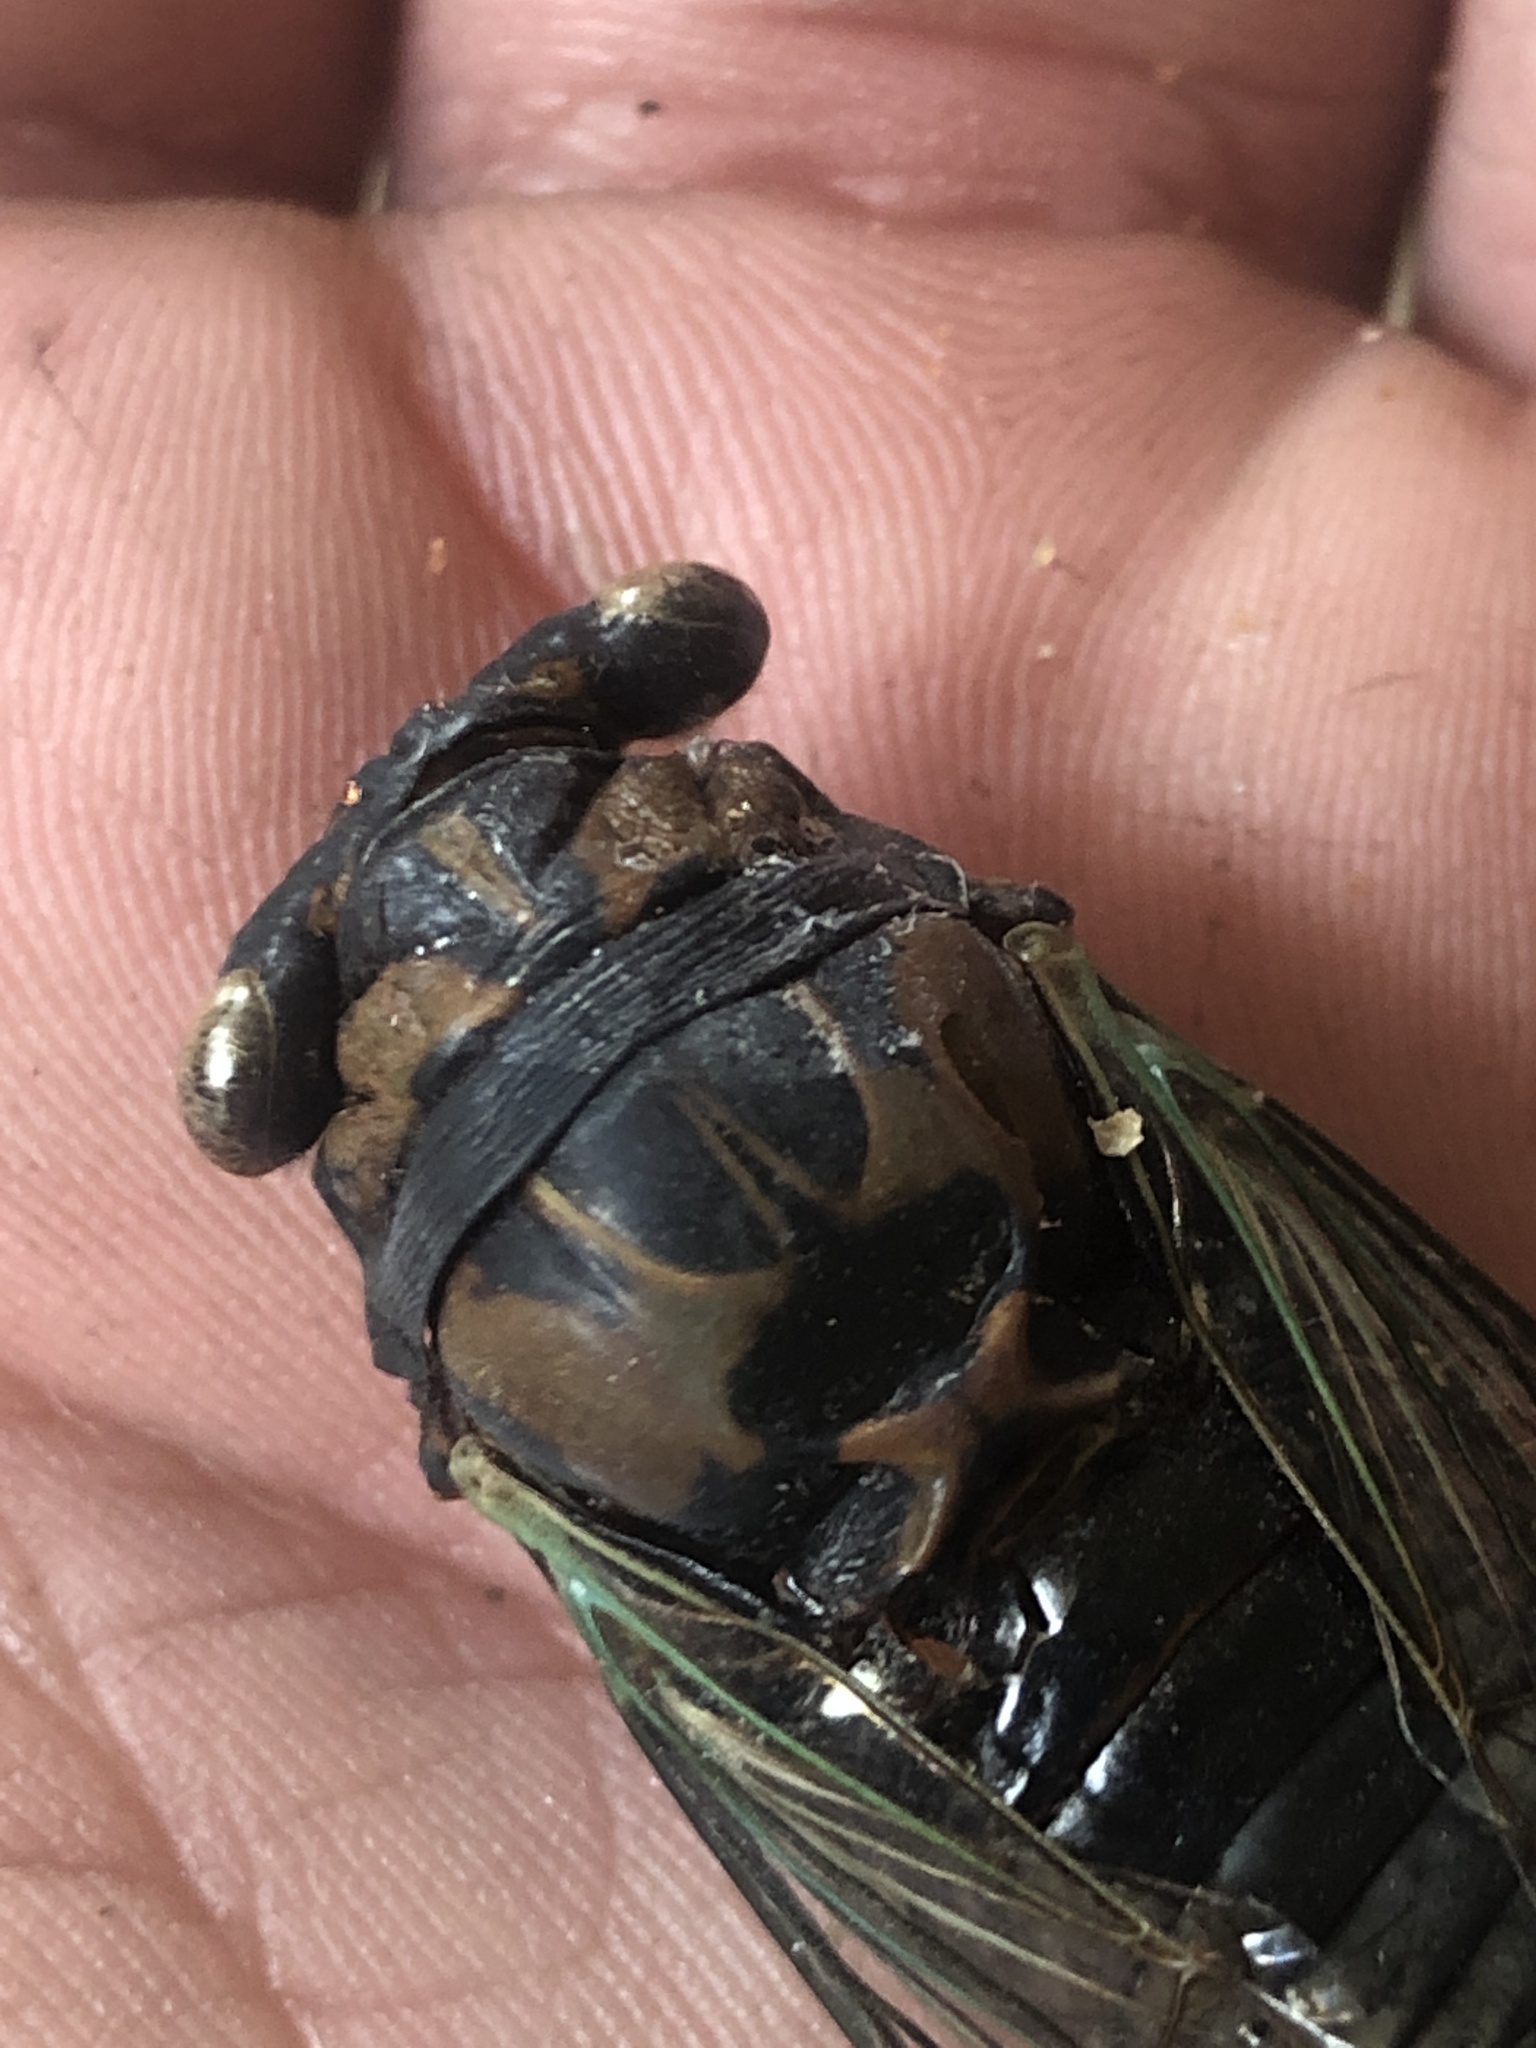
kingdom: Animalia
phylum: Arthropoda
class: Insecta
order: Hemiptera
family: Cicadidae
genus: Neotibicen
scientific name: Neotibicen lyricen
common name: Lyric cicada
